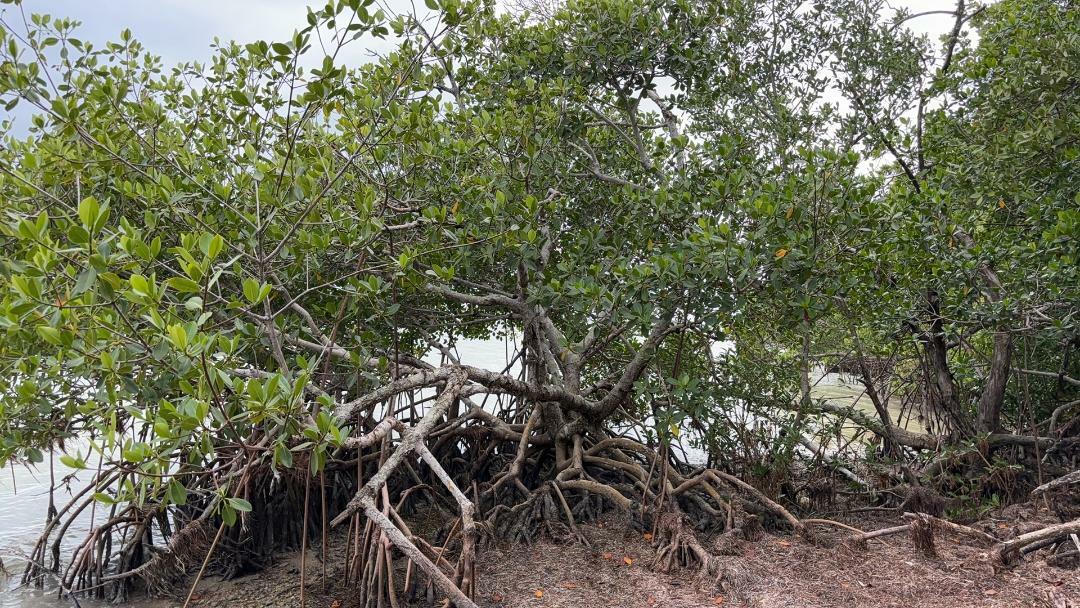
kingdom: Plantae
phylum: Tracheophyta
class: Magnoliopsida
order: Malpighiales
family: Rhizophoraceae
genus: Rhizophora
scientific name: Rhizophora mangle
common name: Red mangrove
